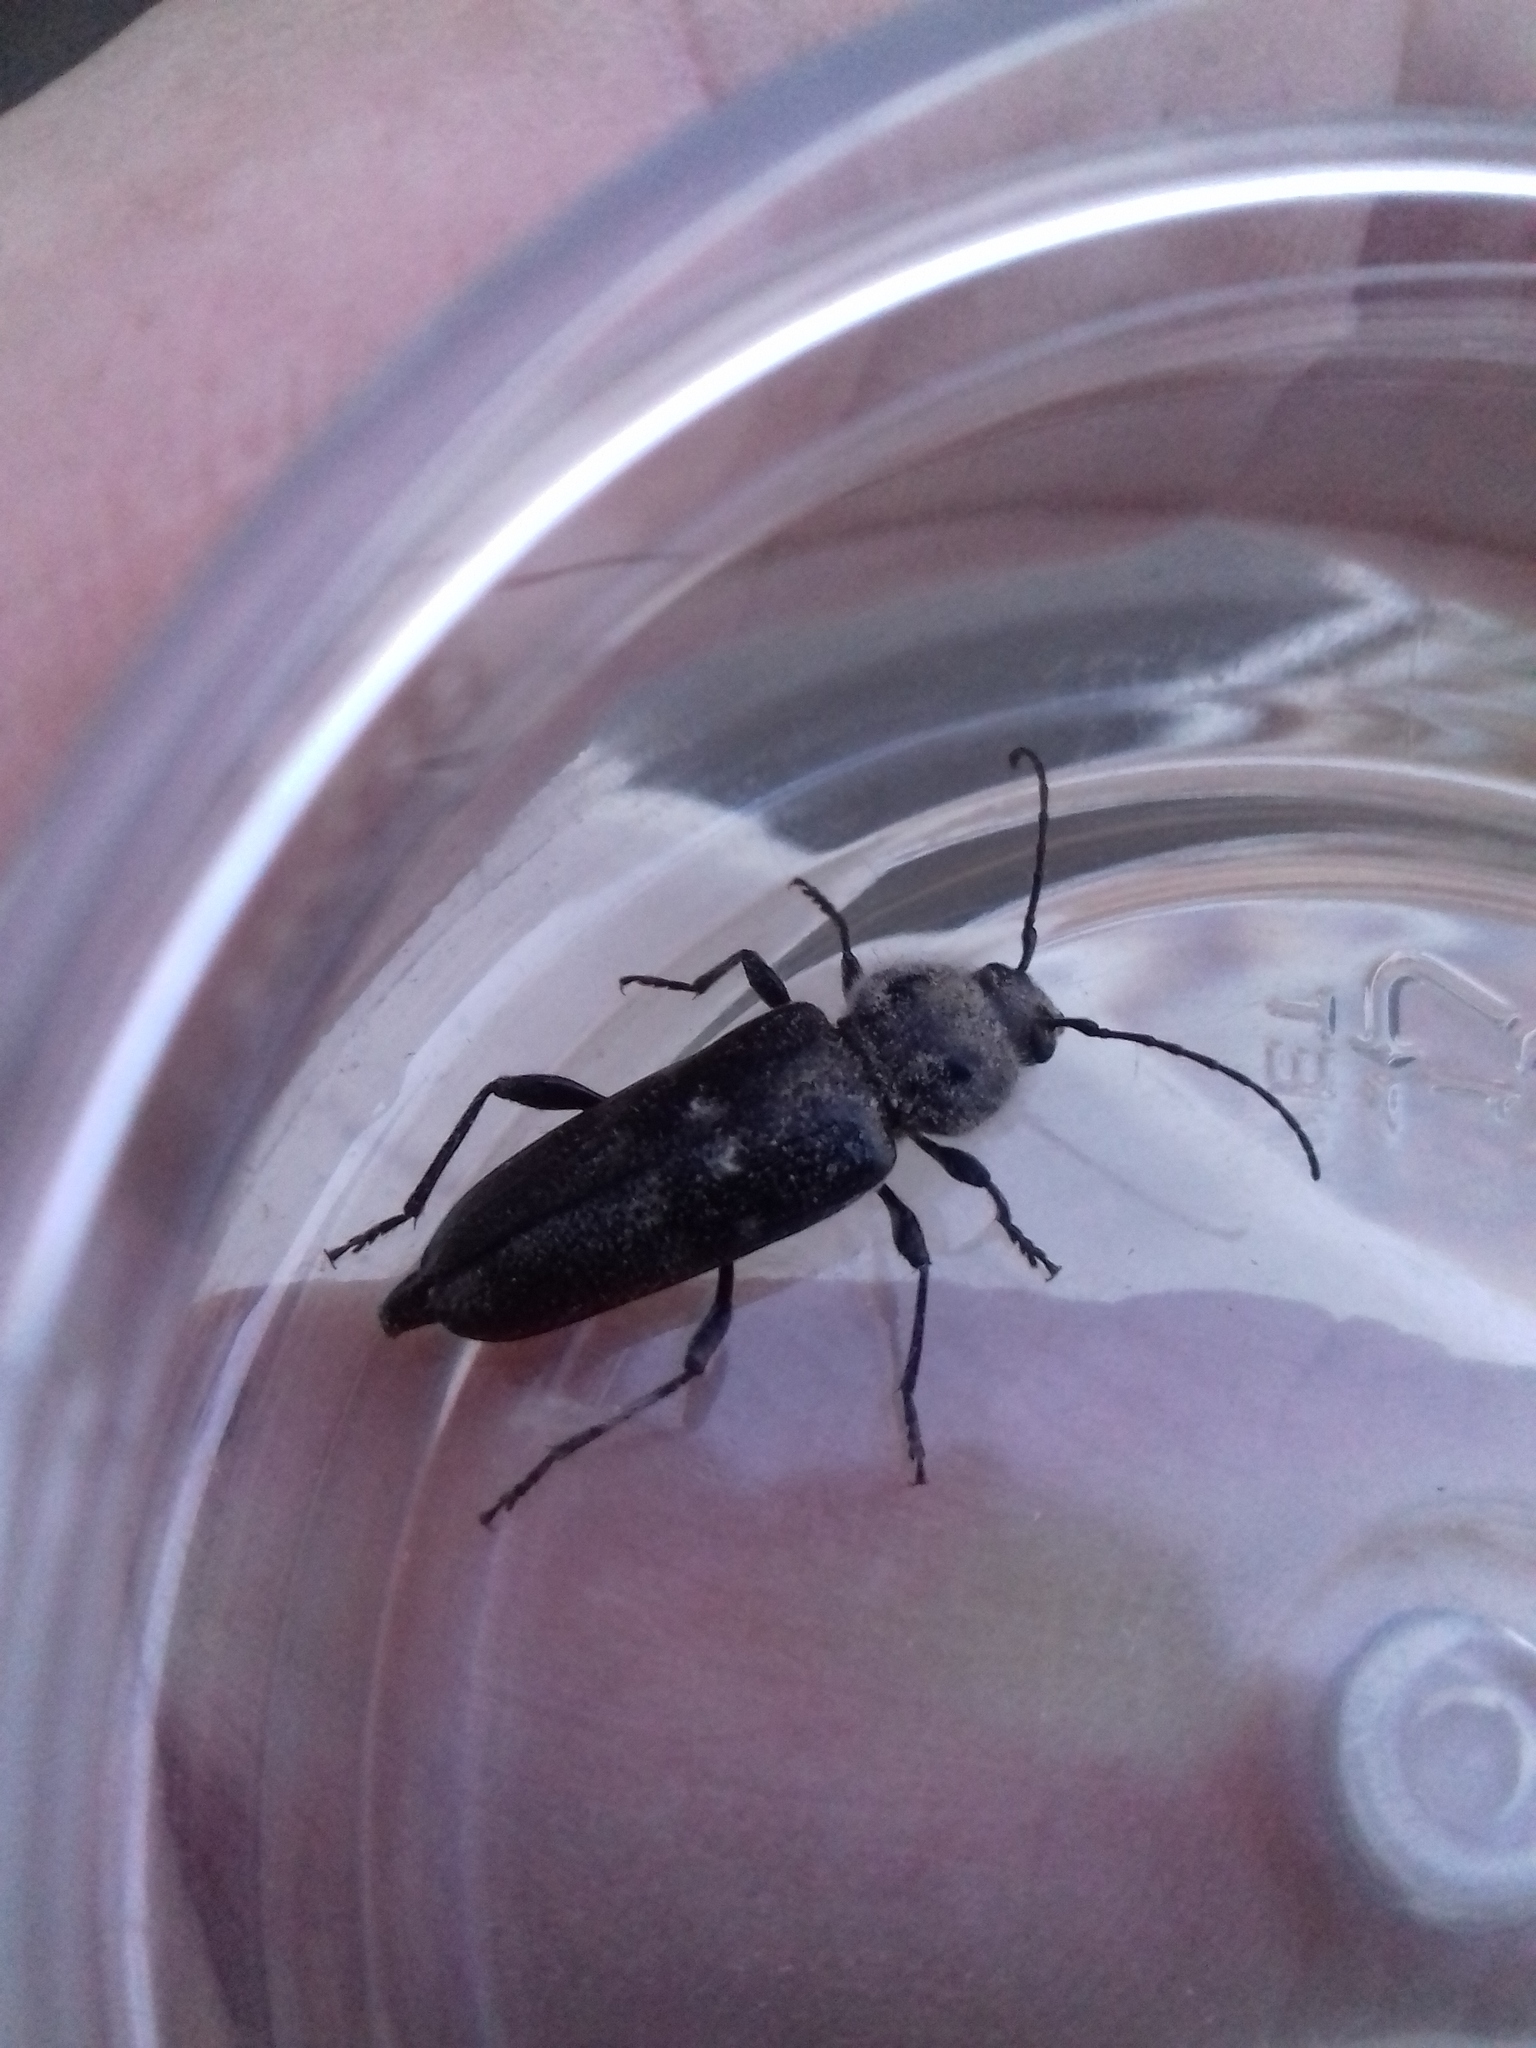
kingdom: Animalia
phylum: Arthropoda
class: Insecta
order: Coleoptera
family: Cerambycidae
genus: Hylotrupes
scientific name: Hylotrupes bajulus
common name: Old house borer
